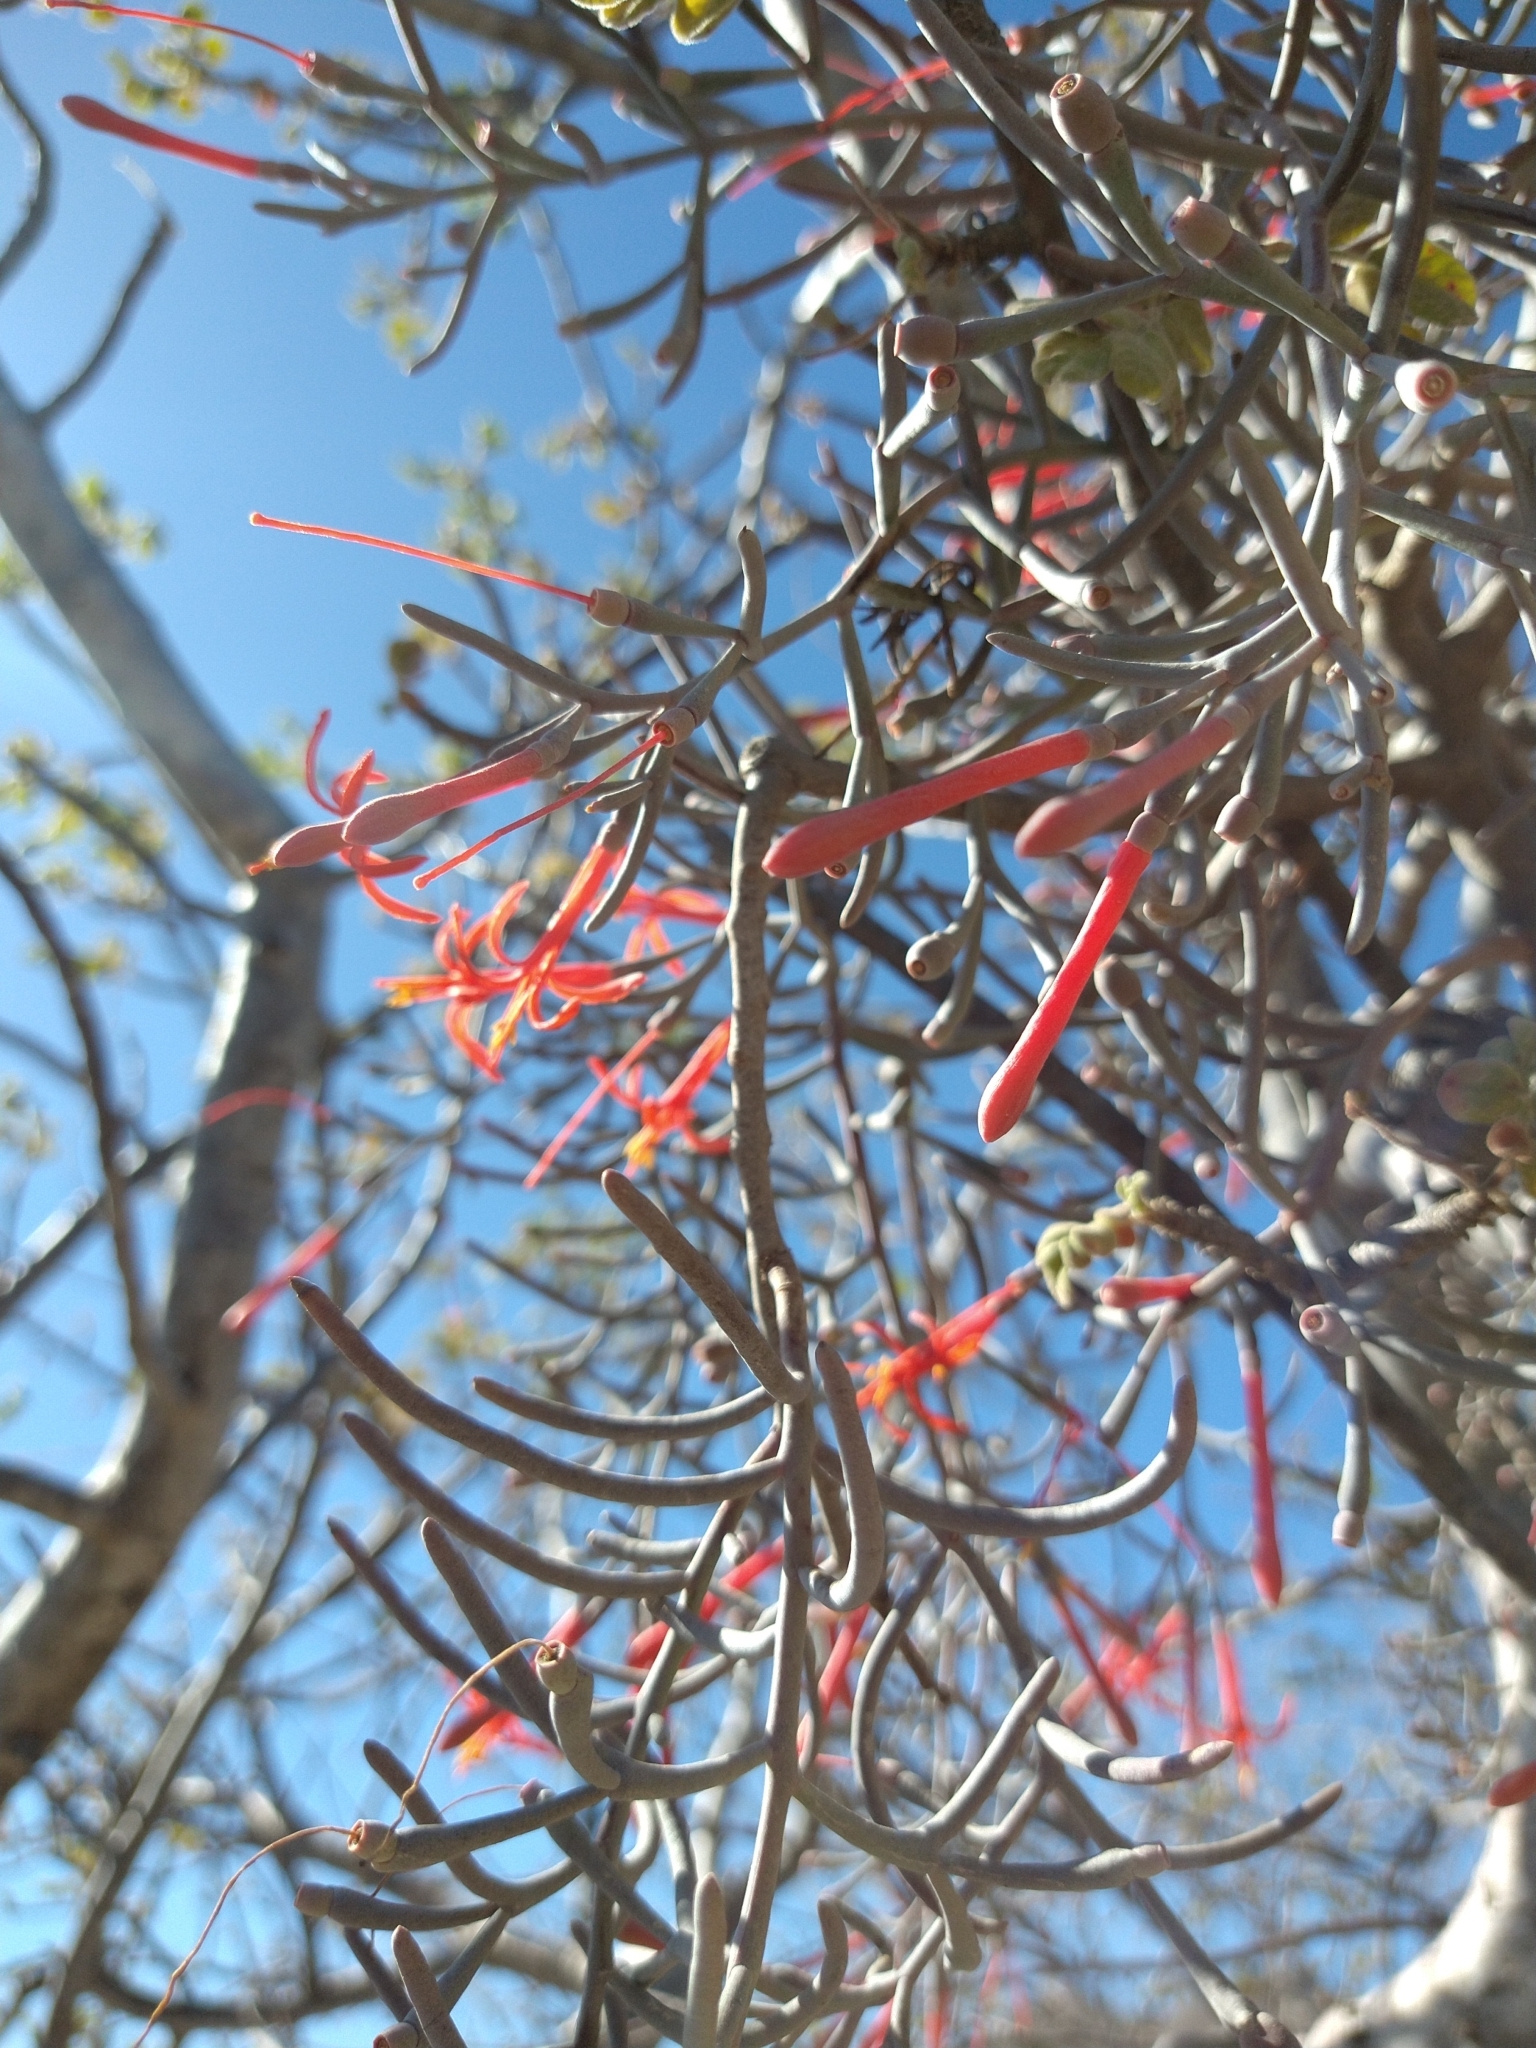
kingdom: Plantae
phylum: Tracheophyta
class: Magnoliopsida
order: Santalales
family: Loranthaceae
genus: Psittacanthus
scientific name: Psittacanthus sonorae
